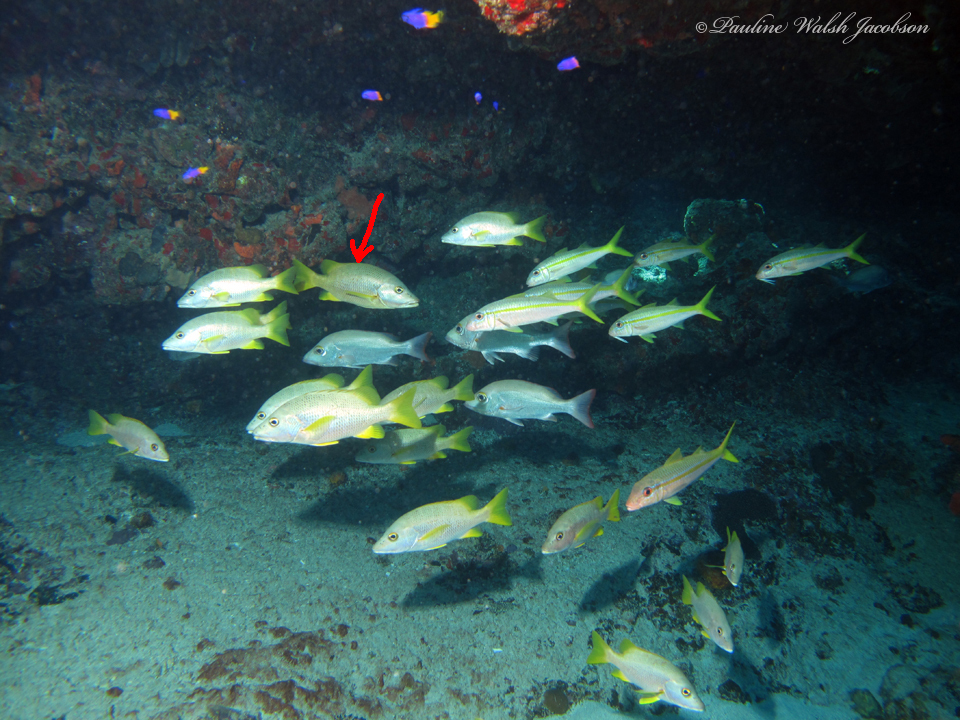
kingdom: Animalia
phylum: Chordata
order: Perciformes
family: Lutjanidae
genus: Lutjanus
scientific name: Lutjanus apodus
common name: Schoolmaster
